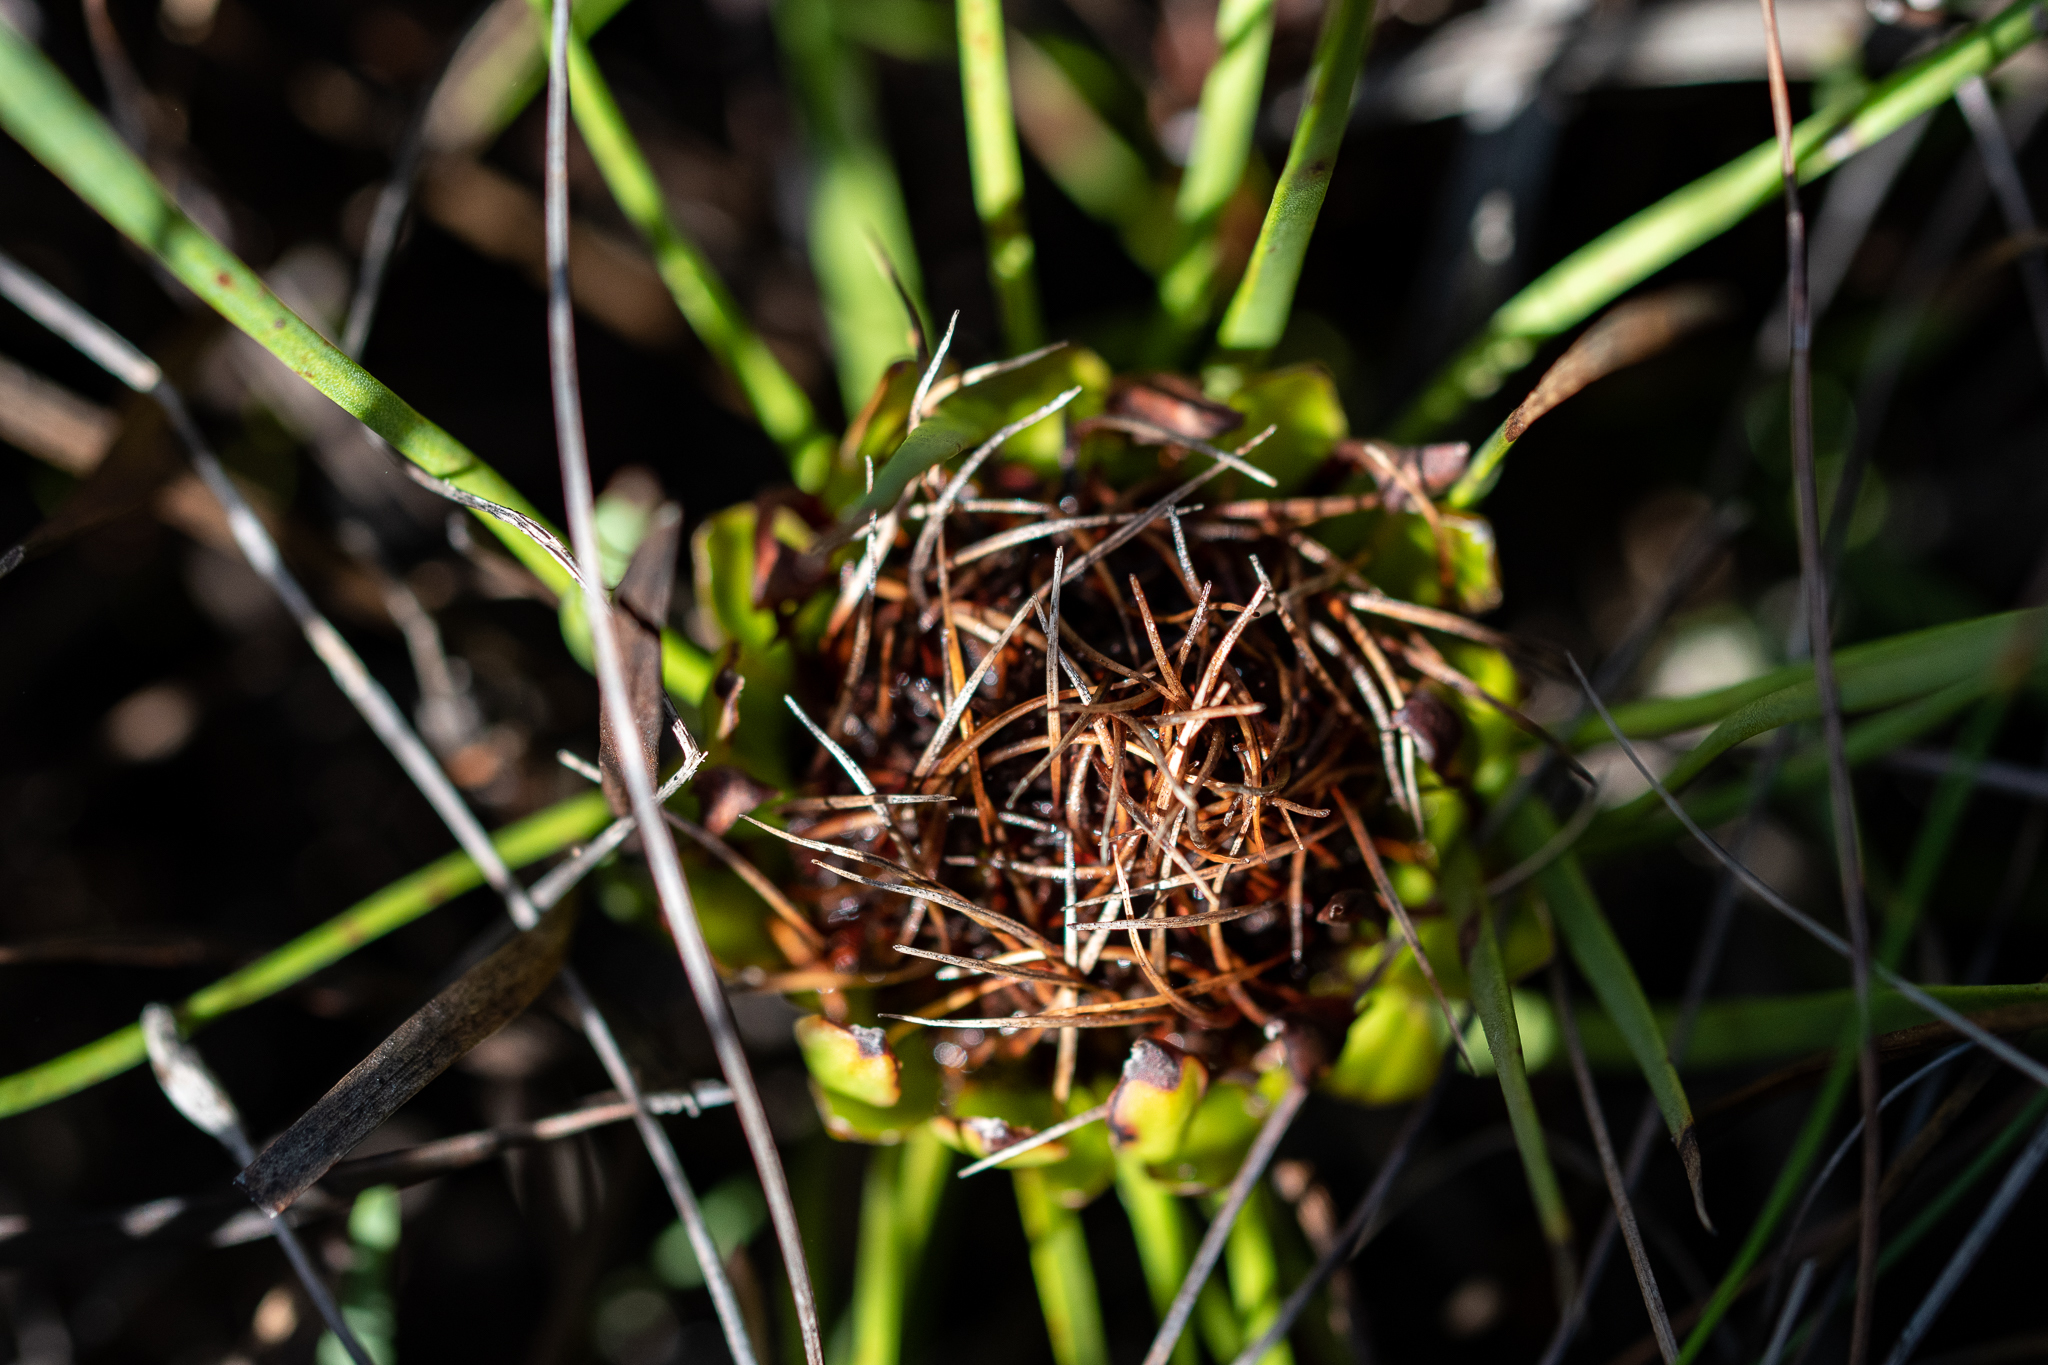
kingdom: Plantae
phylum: Tracheophyta
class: Magnoliopsida
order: Proteales
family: Proteaceae
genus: Protea
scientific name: Protea angustata
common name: Kleinmond sugarbush
